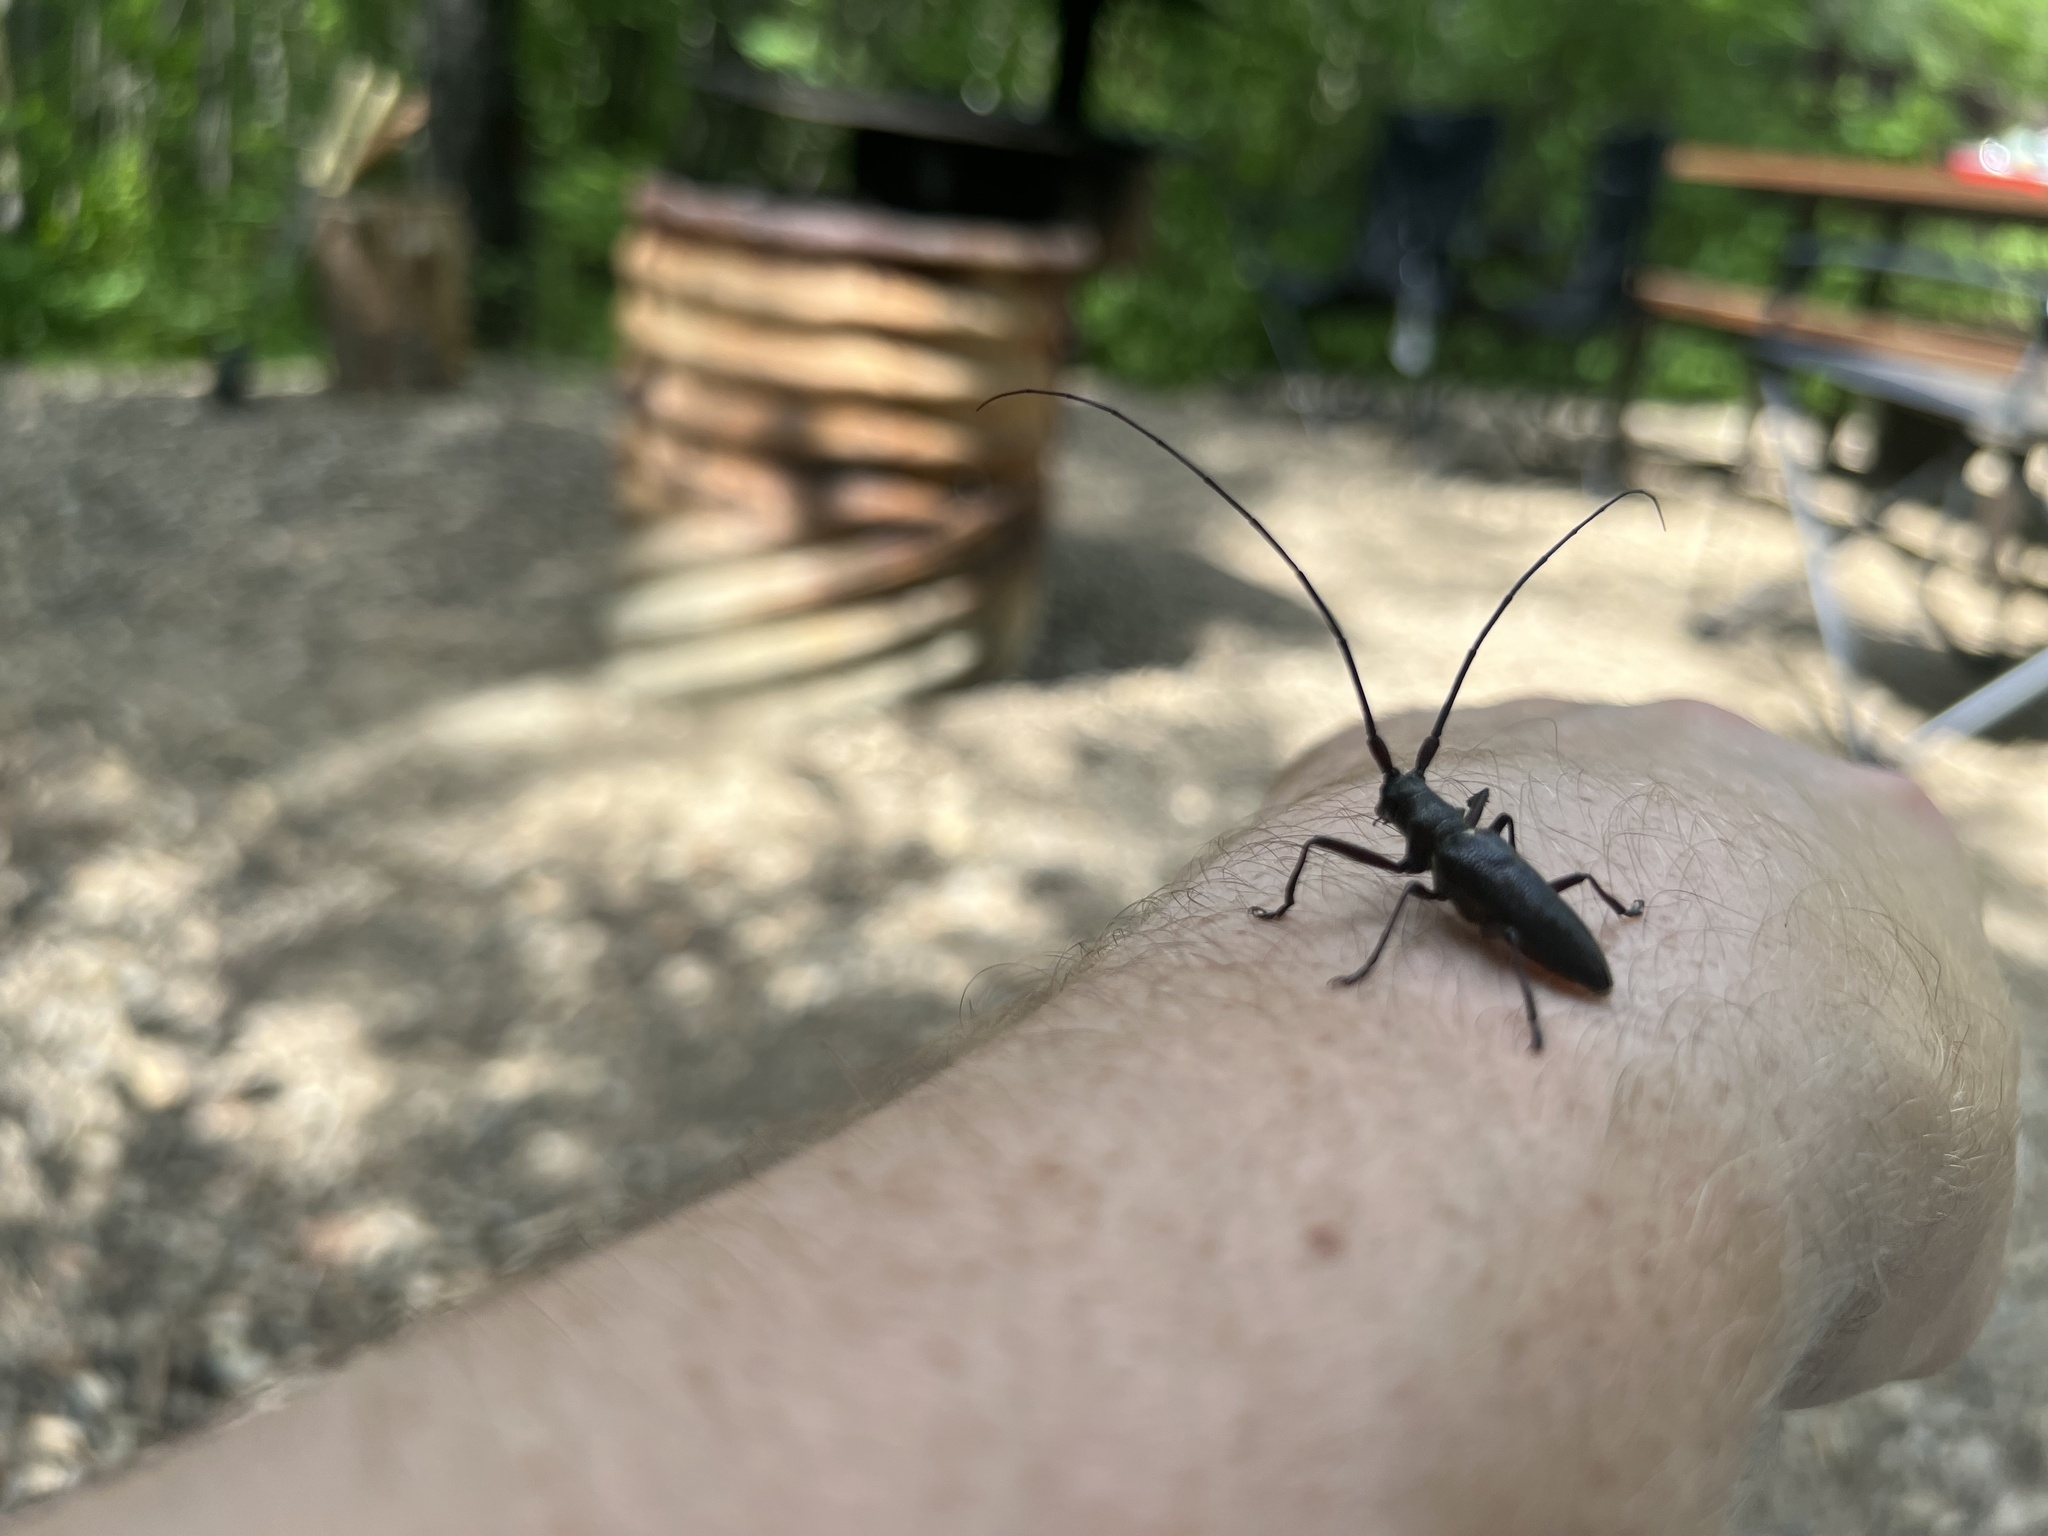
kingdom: Animalia
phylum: Arthropoda
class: Insecta
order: Coleoptera
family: Cerambycidae
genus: Monochamus
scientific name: Monochamus scutellatus
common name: White-spotted sawyer beetle
